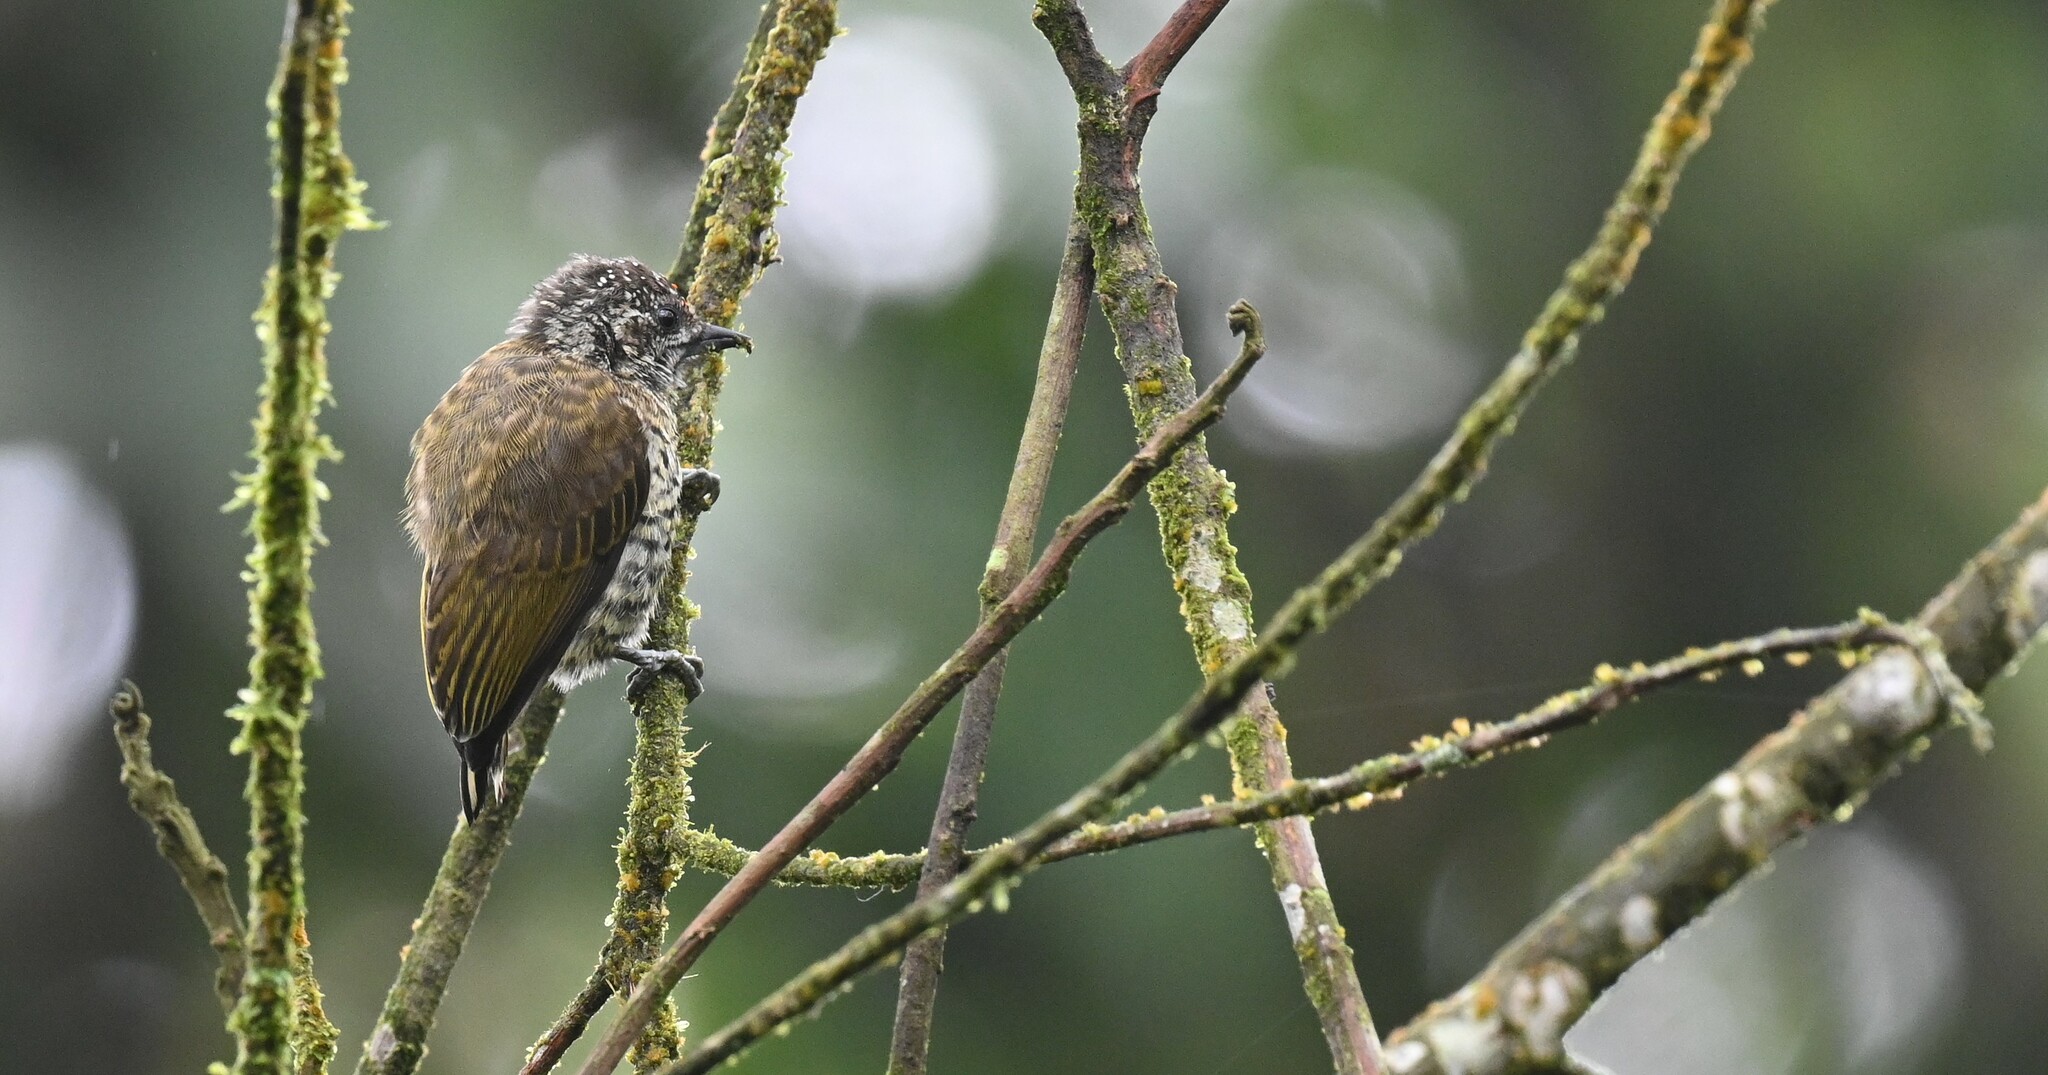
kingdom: Animalia
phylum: Chordata
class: Aves
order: Piciformes
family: Picidae
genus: Picumnus
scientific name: Picumnus lafresnayi
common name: Lafresnaye's piculet
